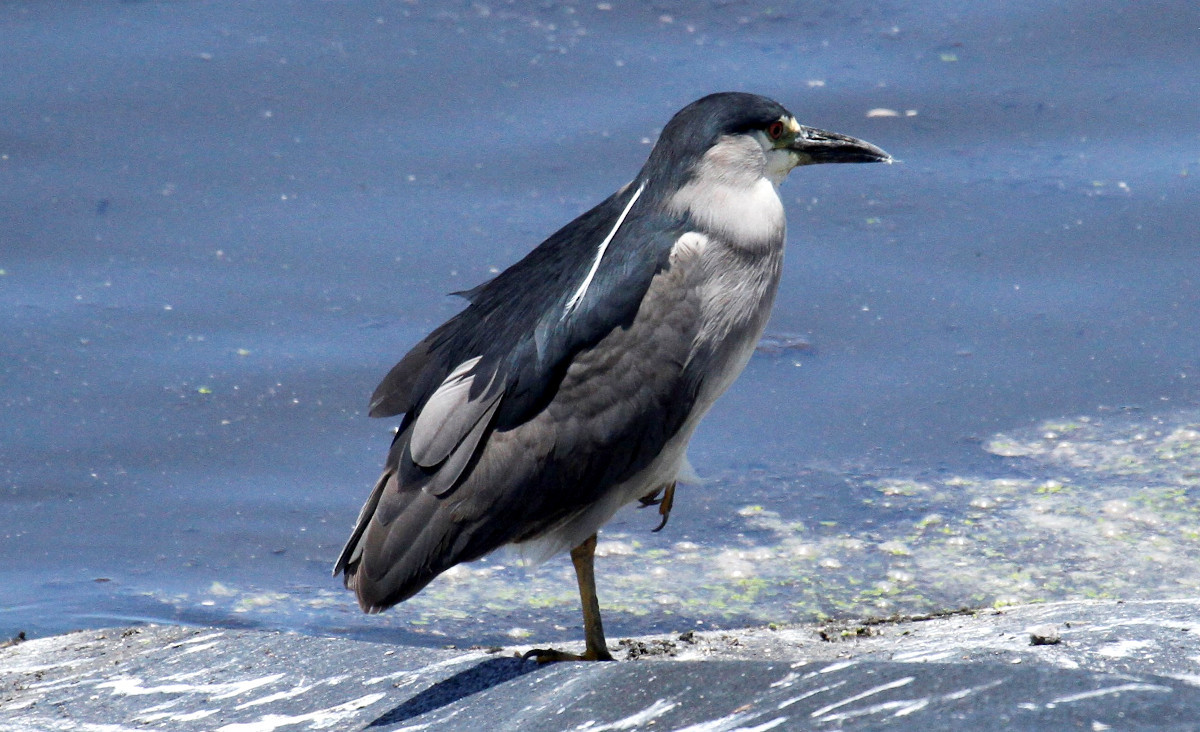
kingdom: Animalia
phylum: Chordata
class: Aves
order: Pelecaniformes
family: Ardeidae
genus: Nycticorax
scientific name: Nycticorax nycticorax
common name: Black-crowned night heron
